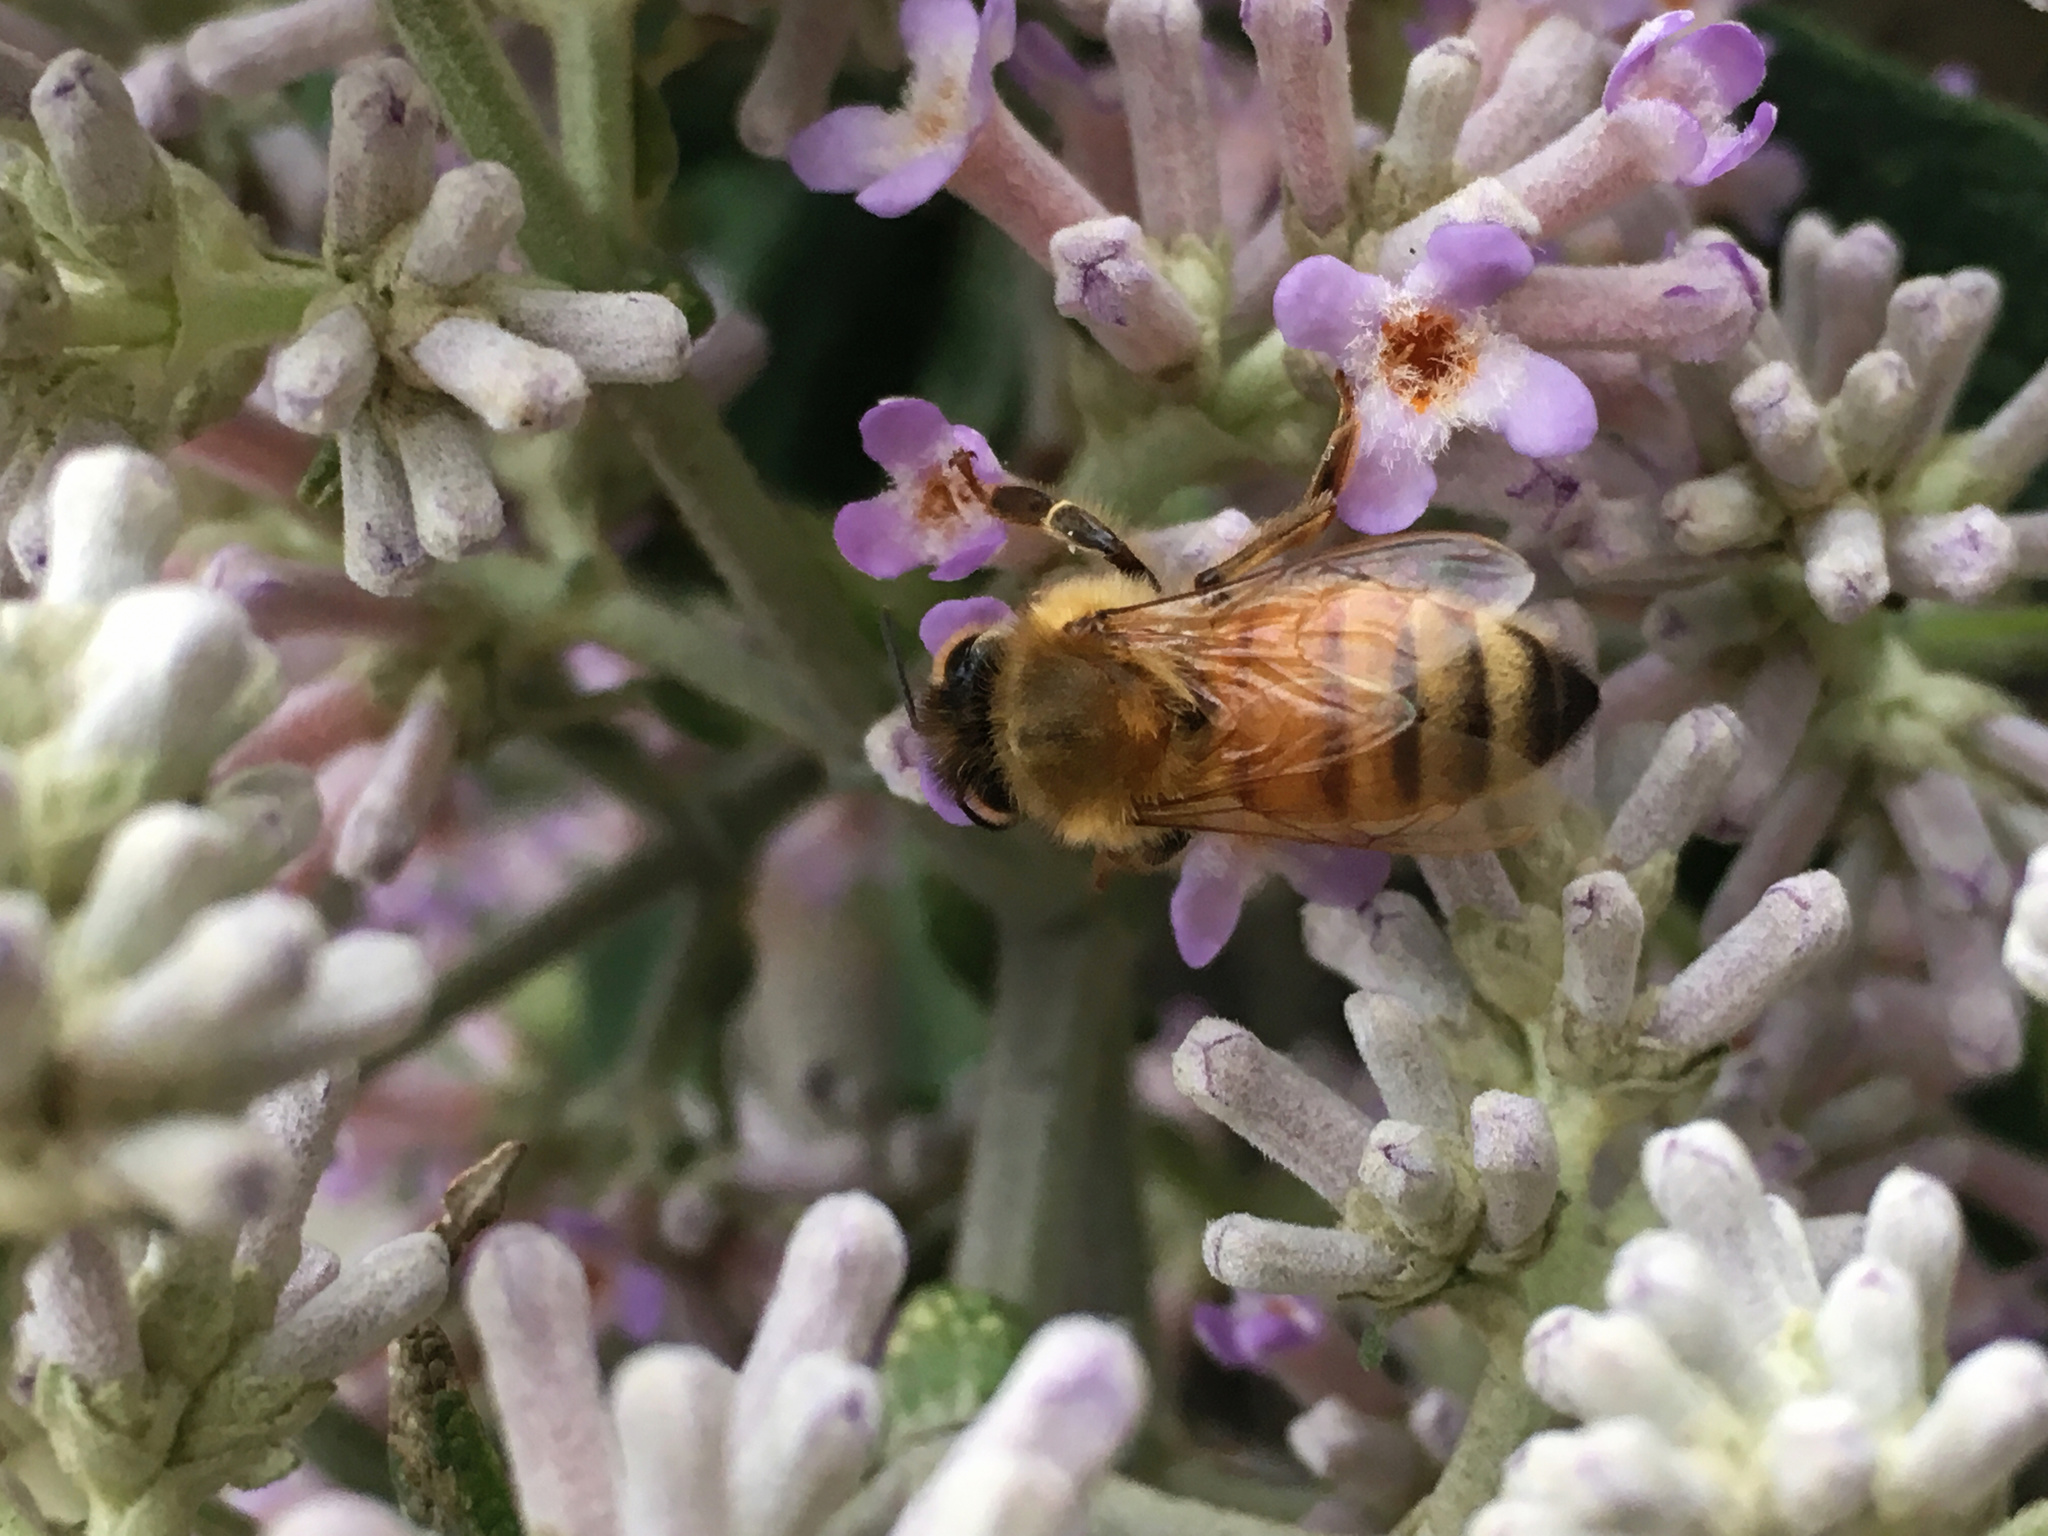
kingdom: Animalia
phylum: Arthropoda
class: Insecta
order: Hymenoptera
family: Apidae
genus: Apis
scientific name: Apis mellifera
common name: Honey bee
